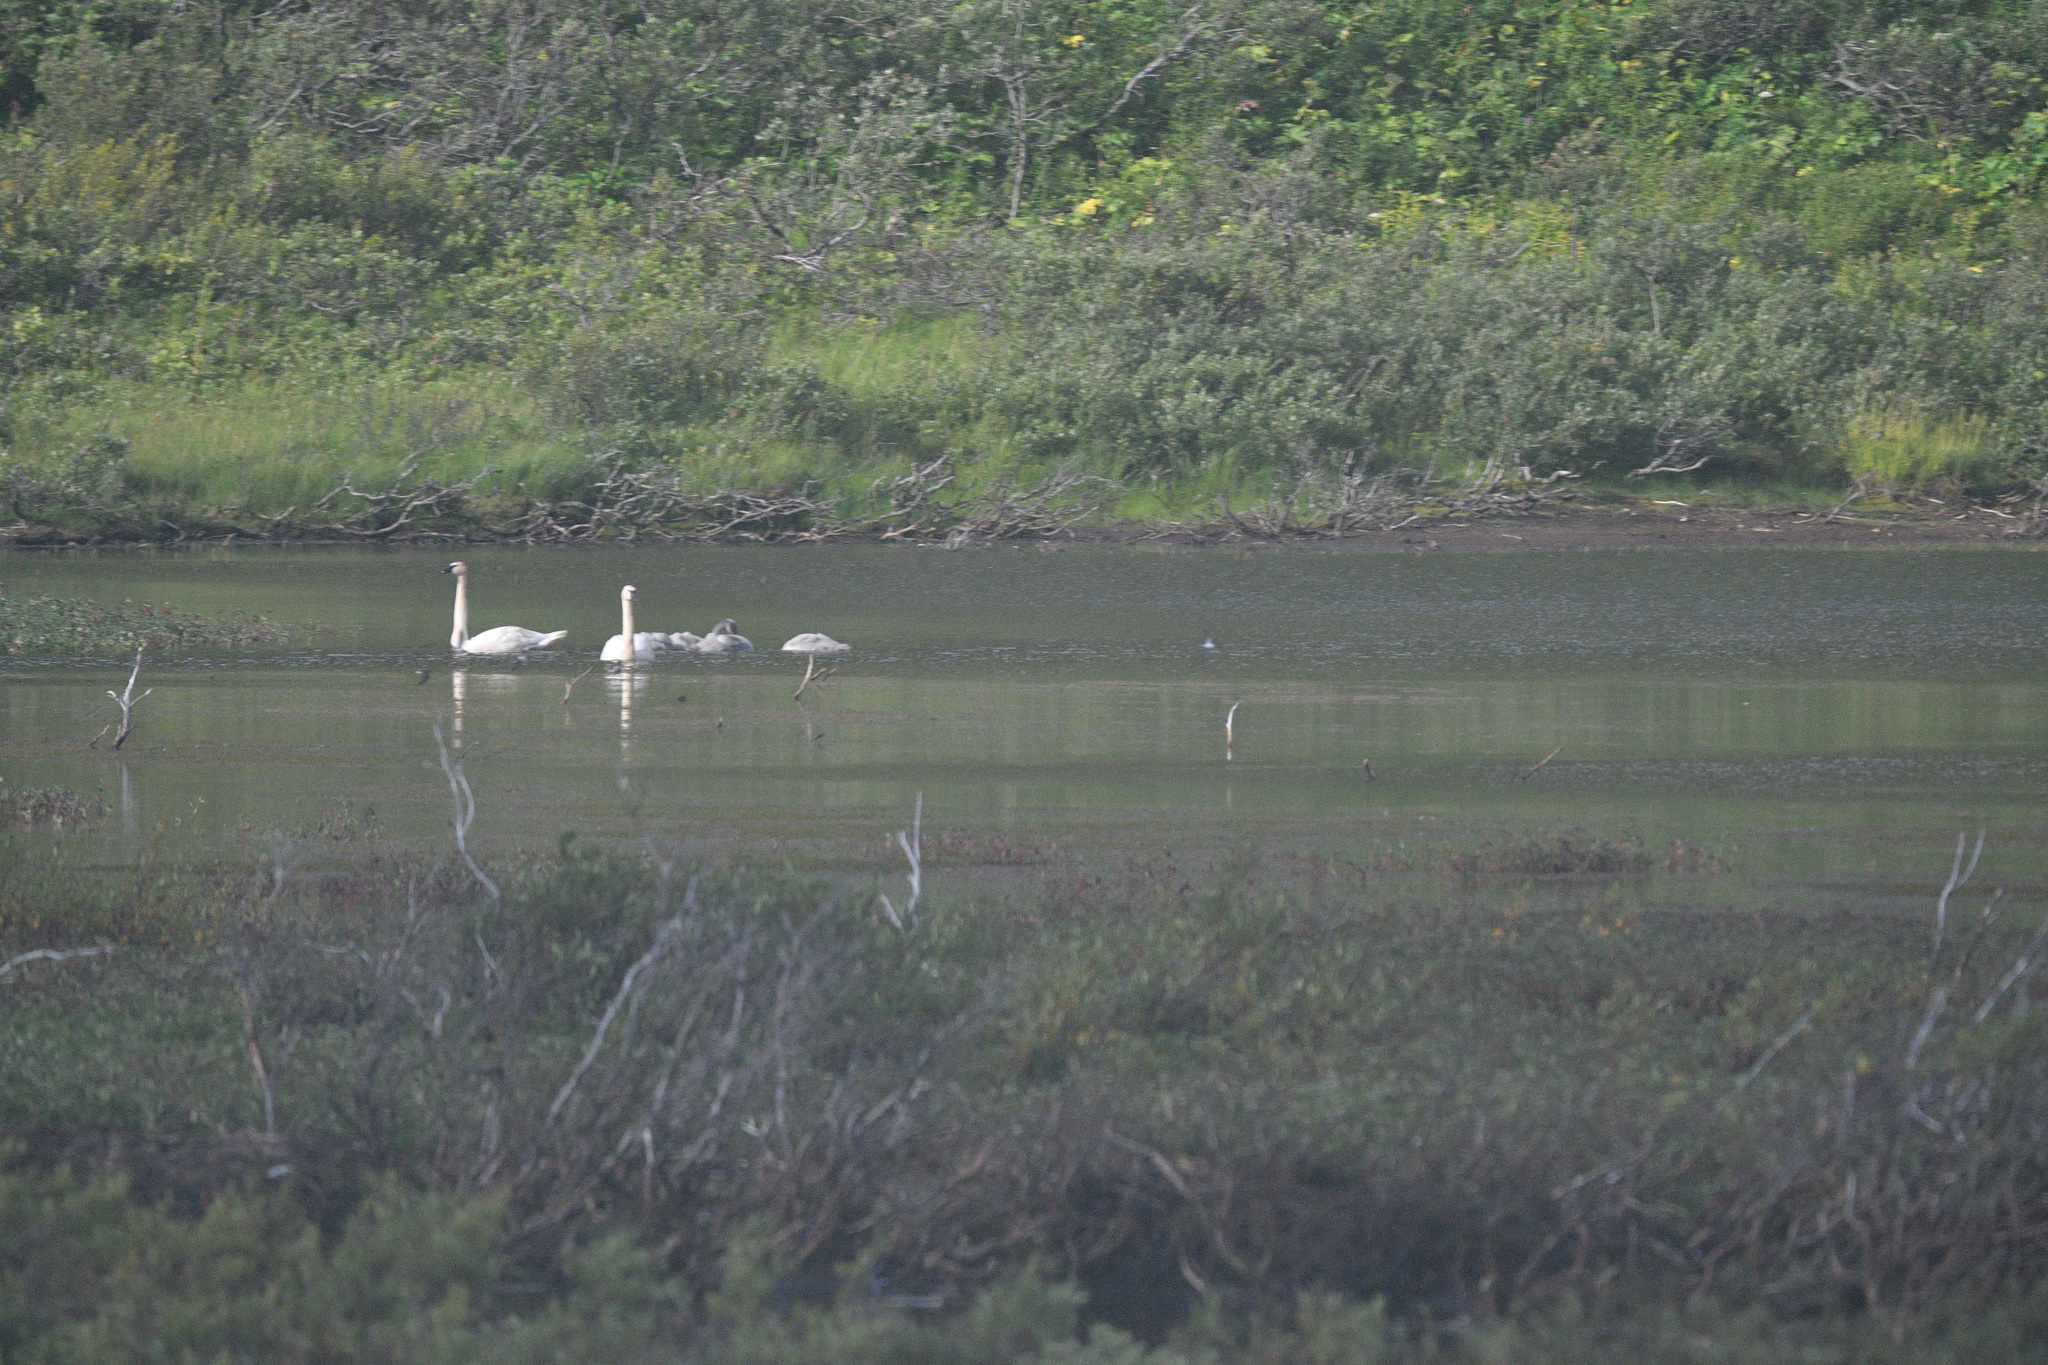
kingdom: Animalia
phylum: Chordata
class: Aves
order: Anseriformes
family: Anatidae
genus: Cygnus
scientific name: Cygnus buccinator
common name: Trumpeter swan
